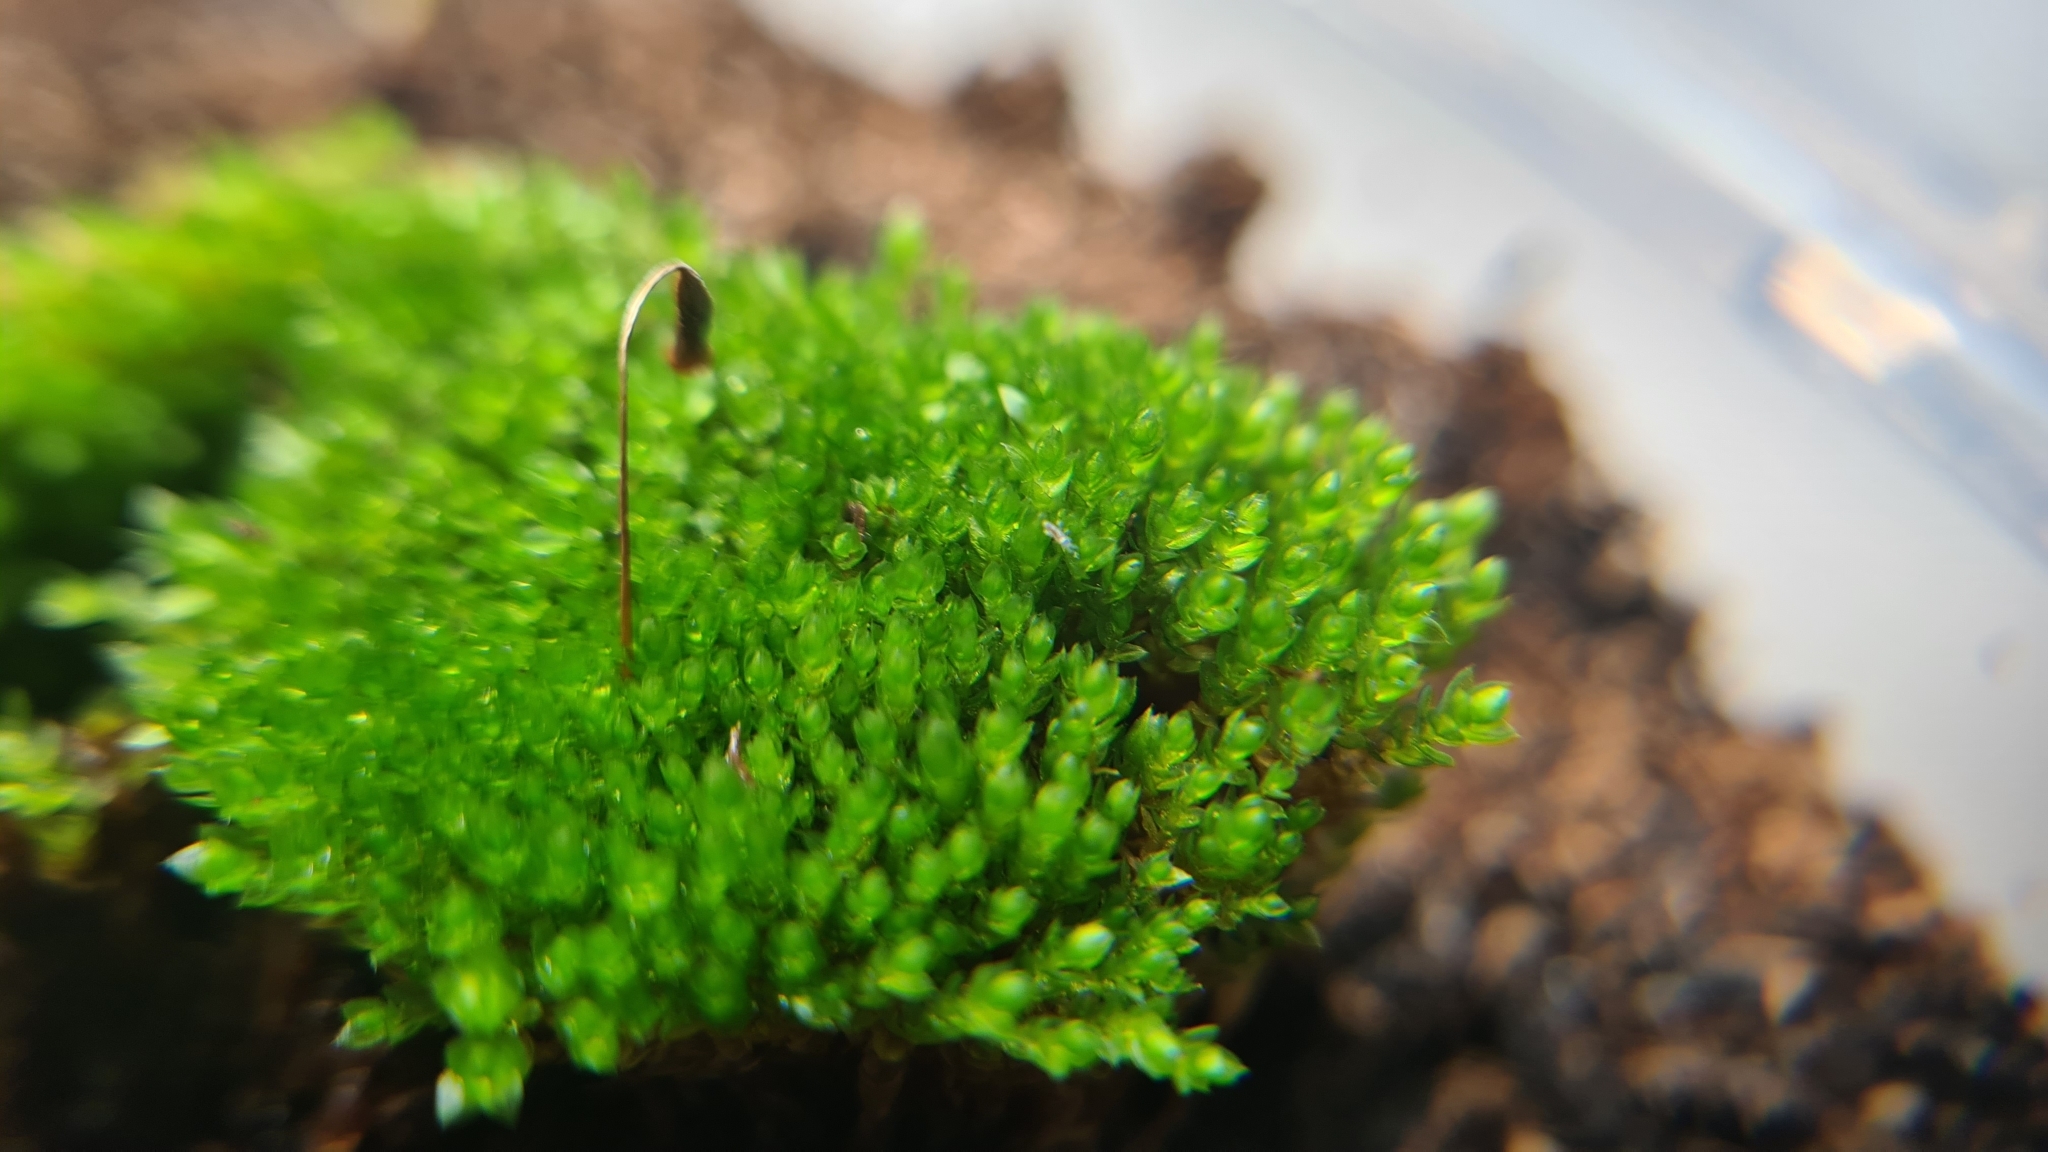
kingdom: Plantae
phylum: Bryophyta
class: Bryopsida
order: Bryales
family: Bryaceae
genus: Bryum
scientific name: Bryum argenteum
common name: Silver-moss
